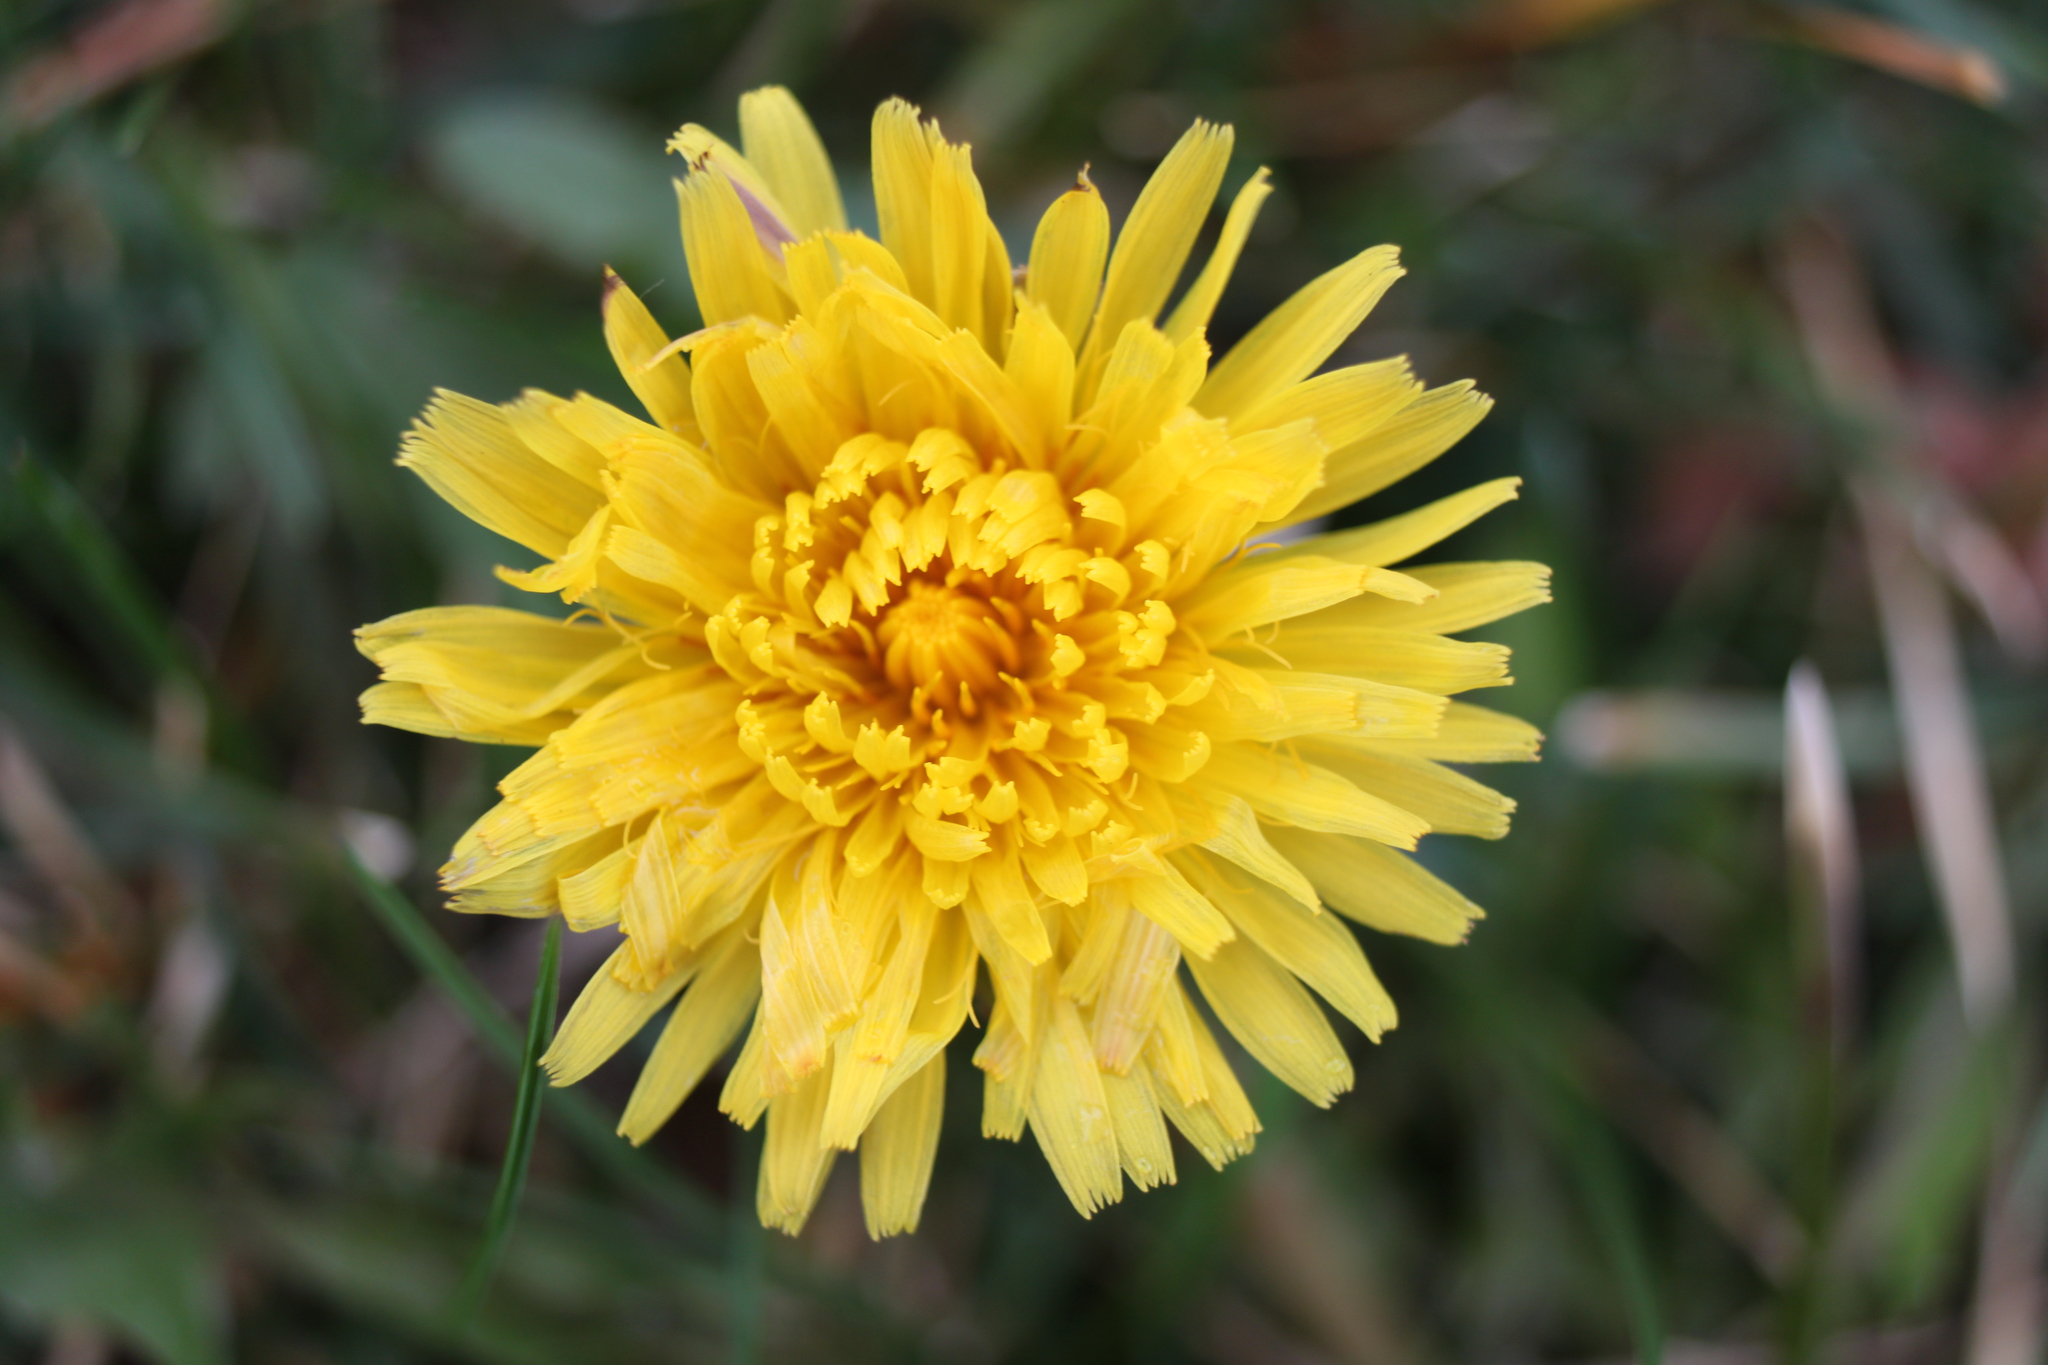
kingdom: Plantae
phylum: Tracheophyta
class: Magnoliopsida
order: Asterales
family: Asteraceae
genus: Taraxacum
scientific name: Taraxacum officinale
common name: Common dandelion
